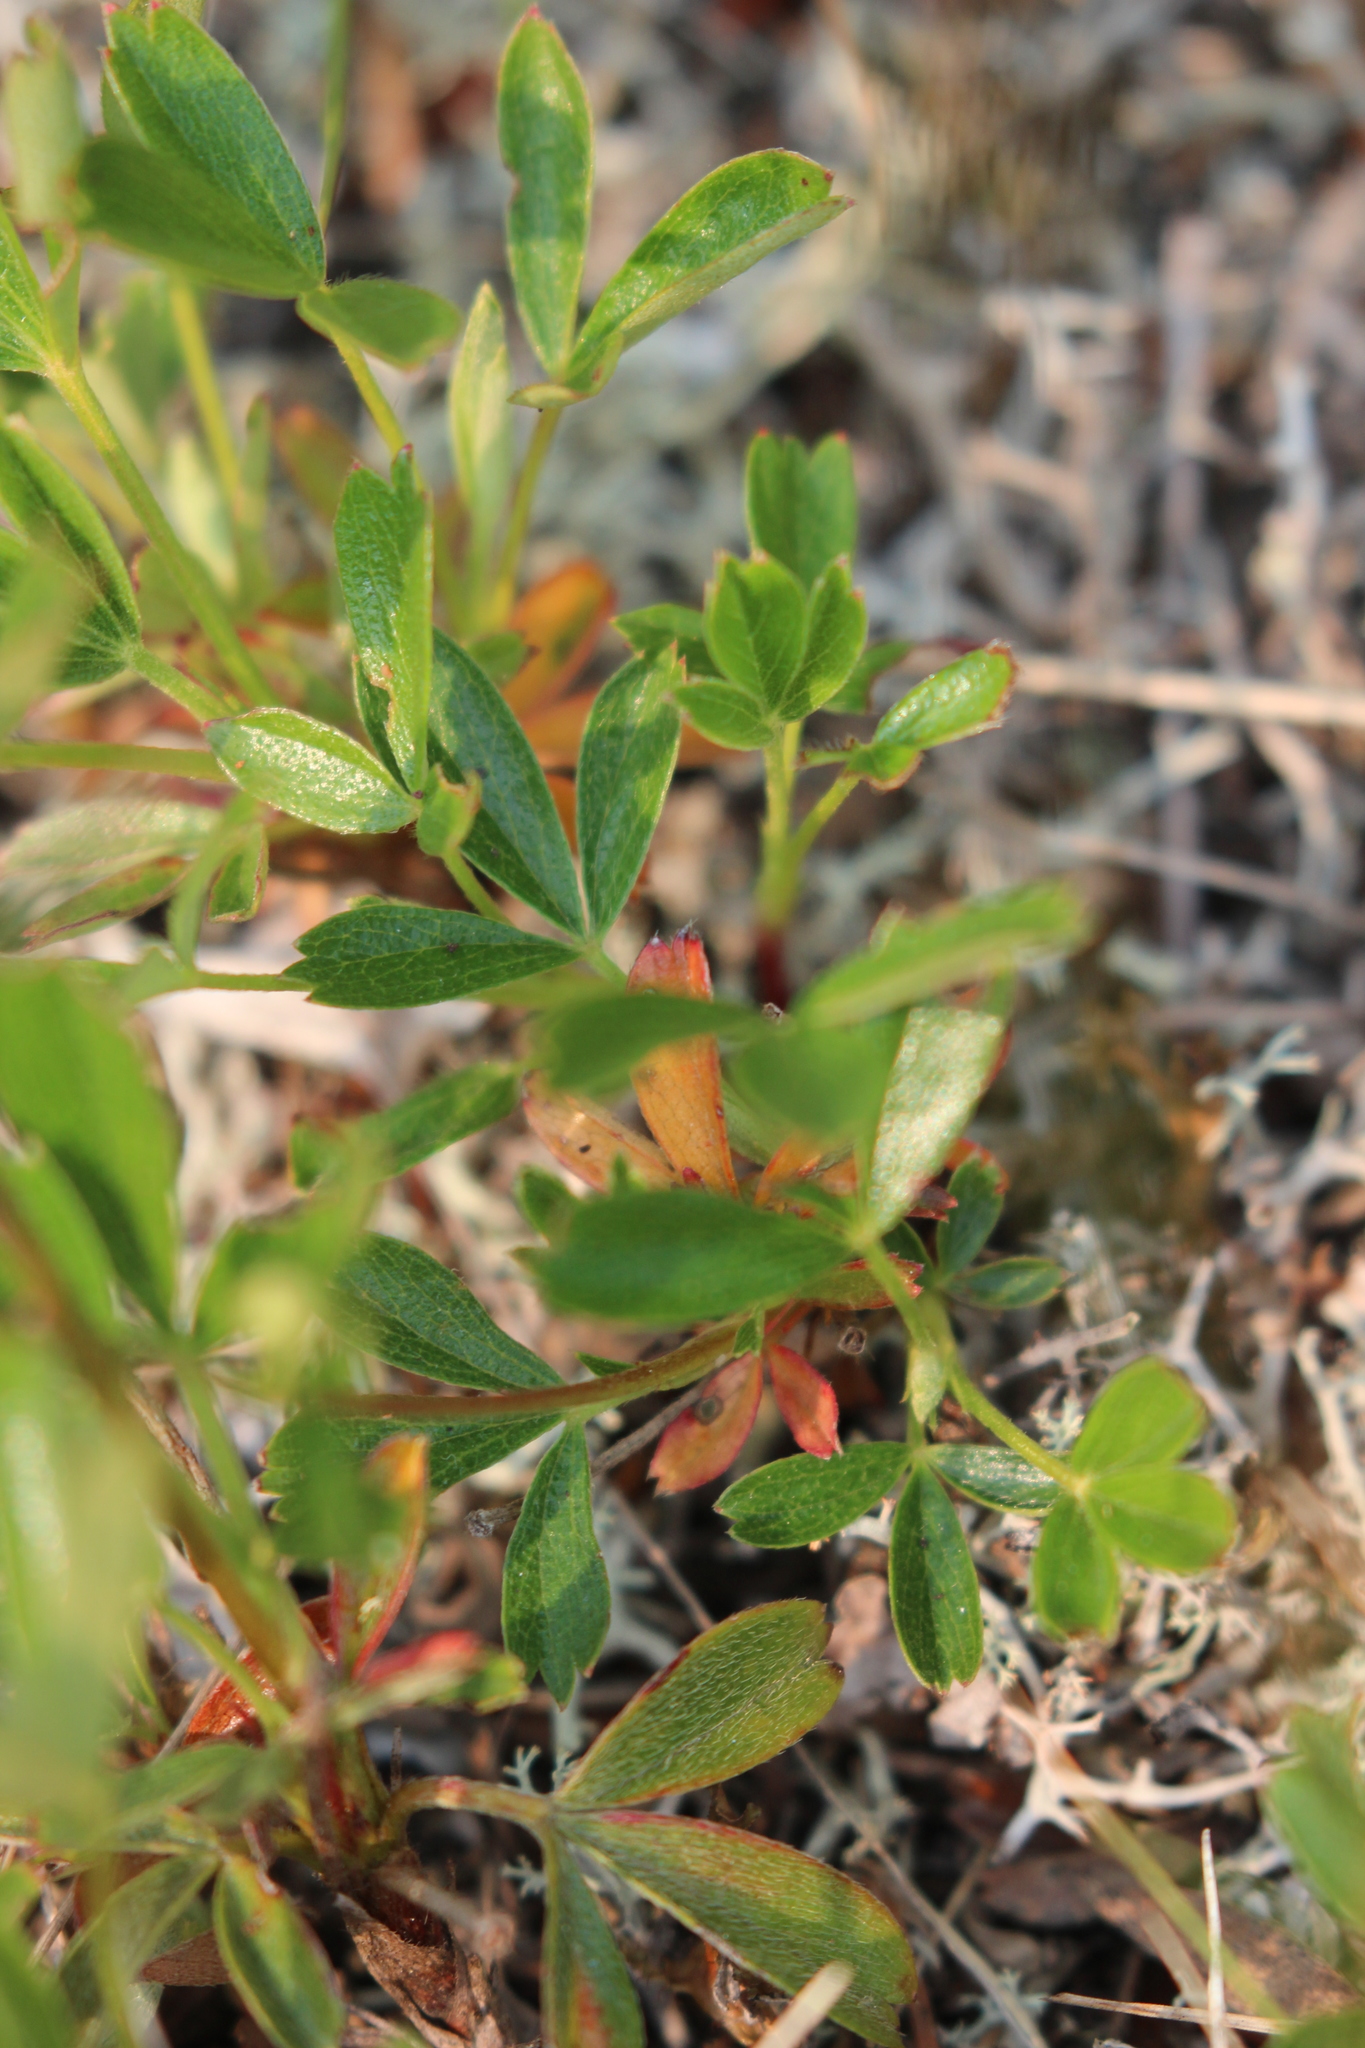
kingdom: Plantae
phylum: Tracheophyta
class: Magnoliopsida
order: Rosales
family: Rosaceae
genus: Sibbaldia
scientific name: Sibbaldia tridentata
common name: Three-toothed cinquefoil
